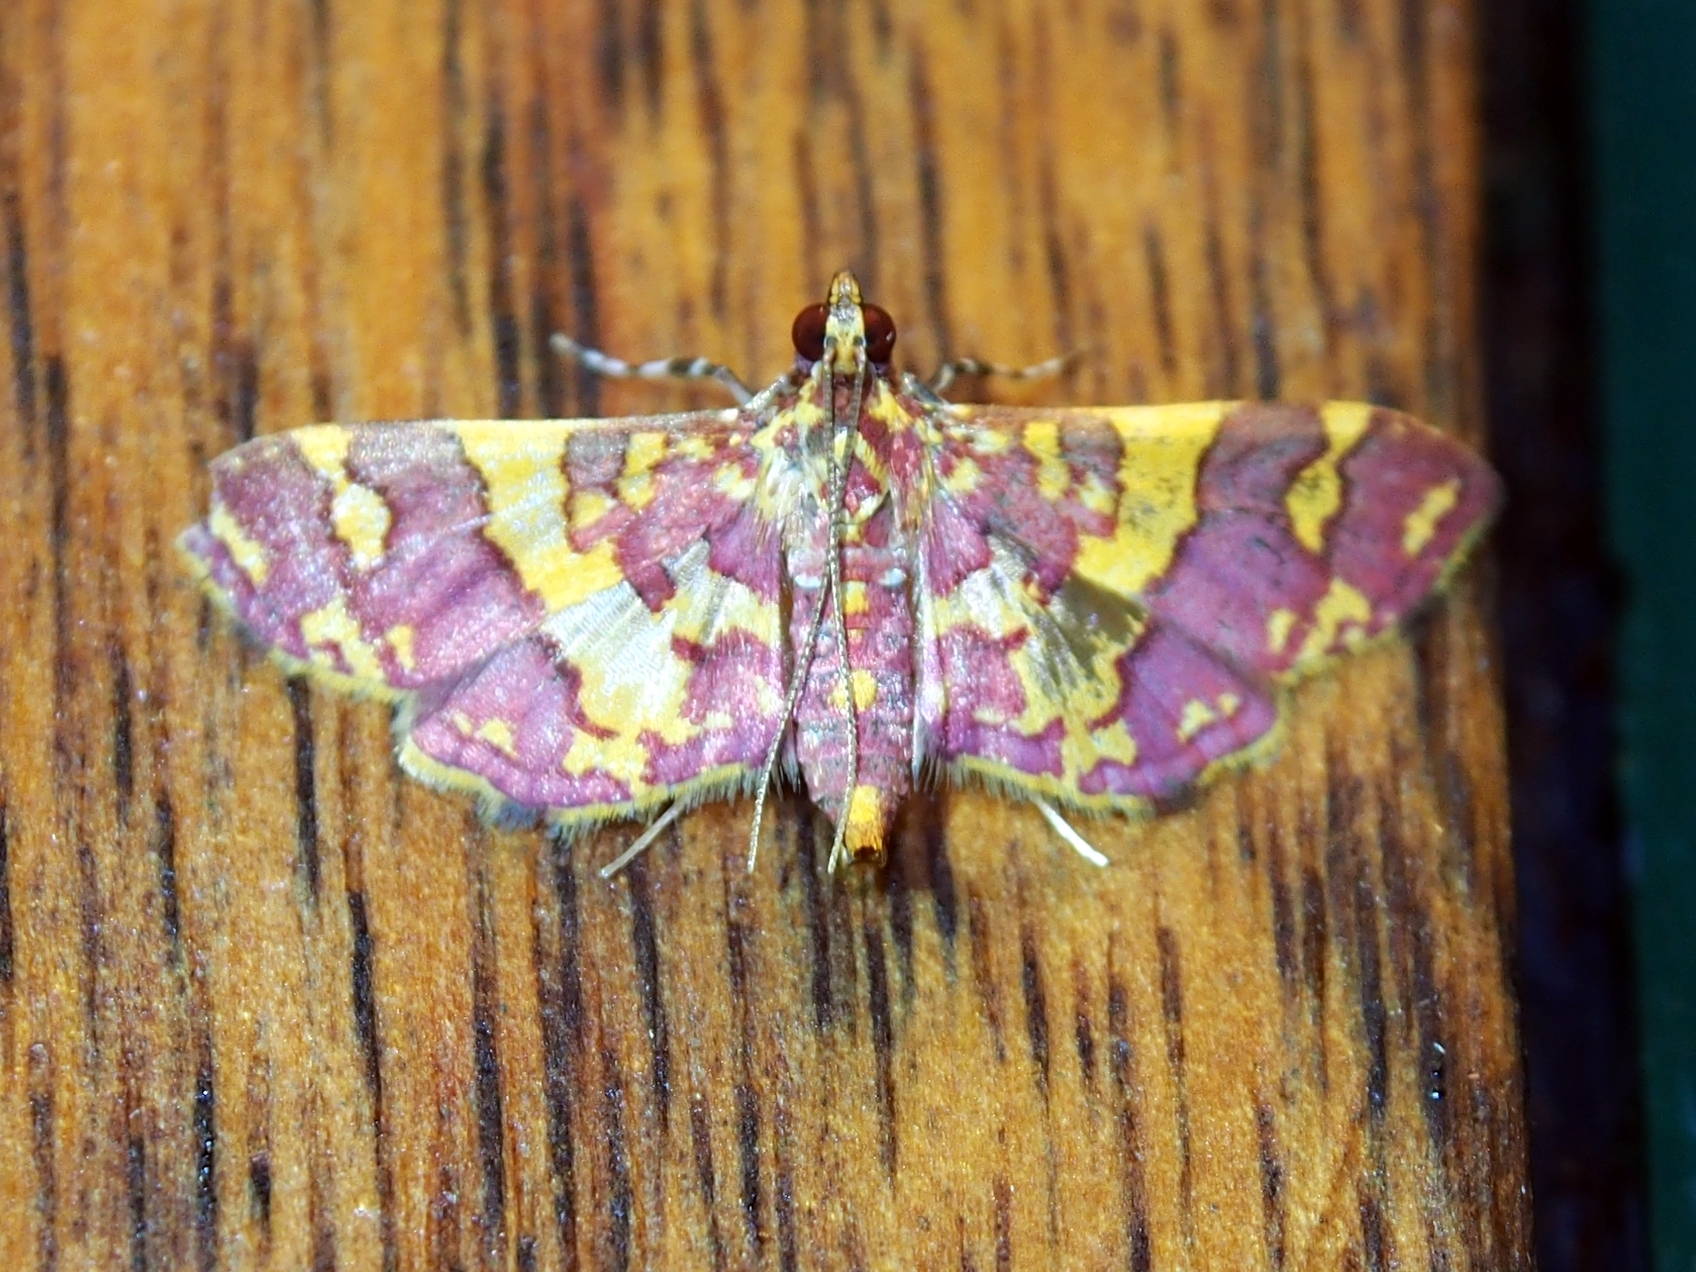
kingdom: Animalia
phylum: Arthropoda
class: Insecta
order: Lepidoptera
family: Crambidae
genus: Trithyris
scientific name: Trithyris Prenesta rubrocinctalis
